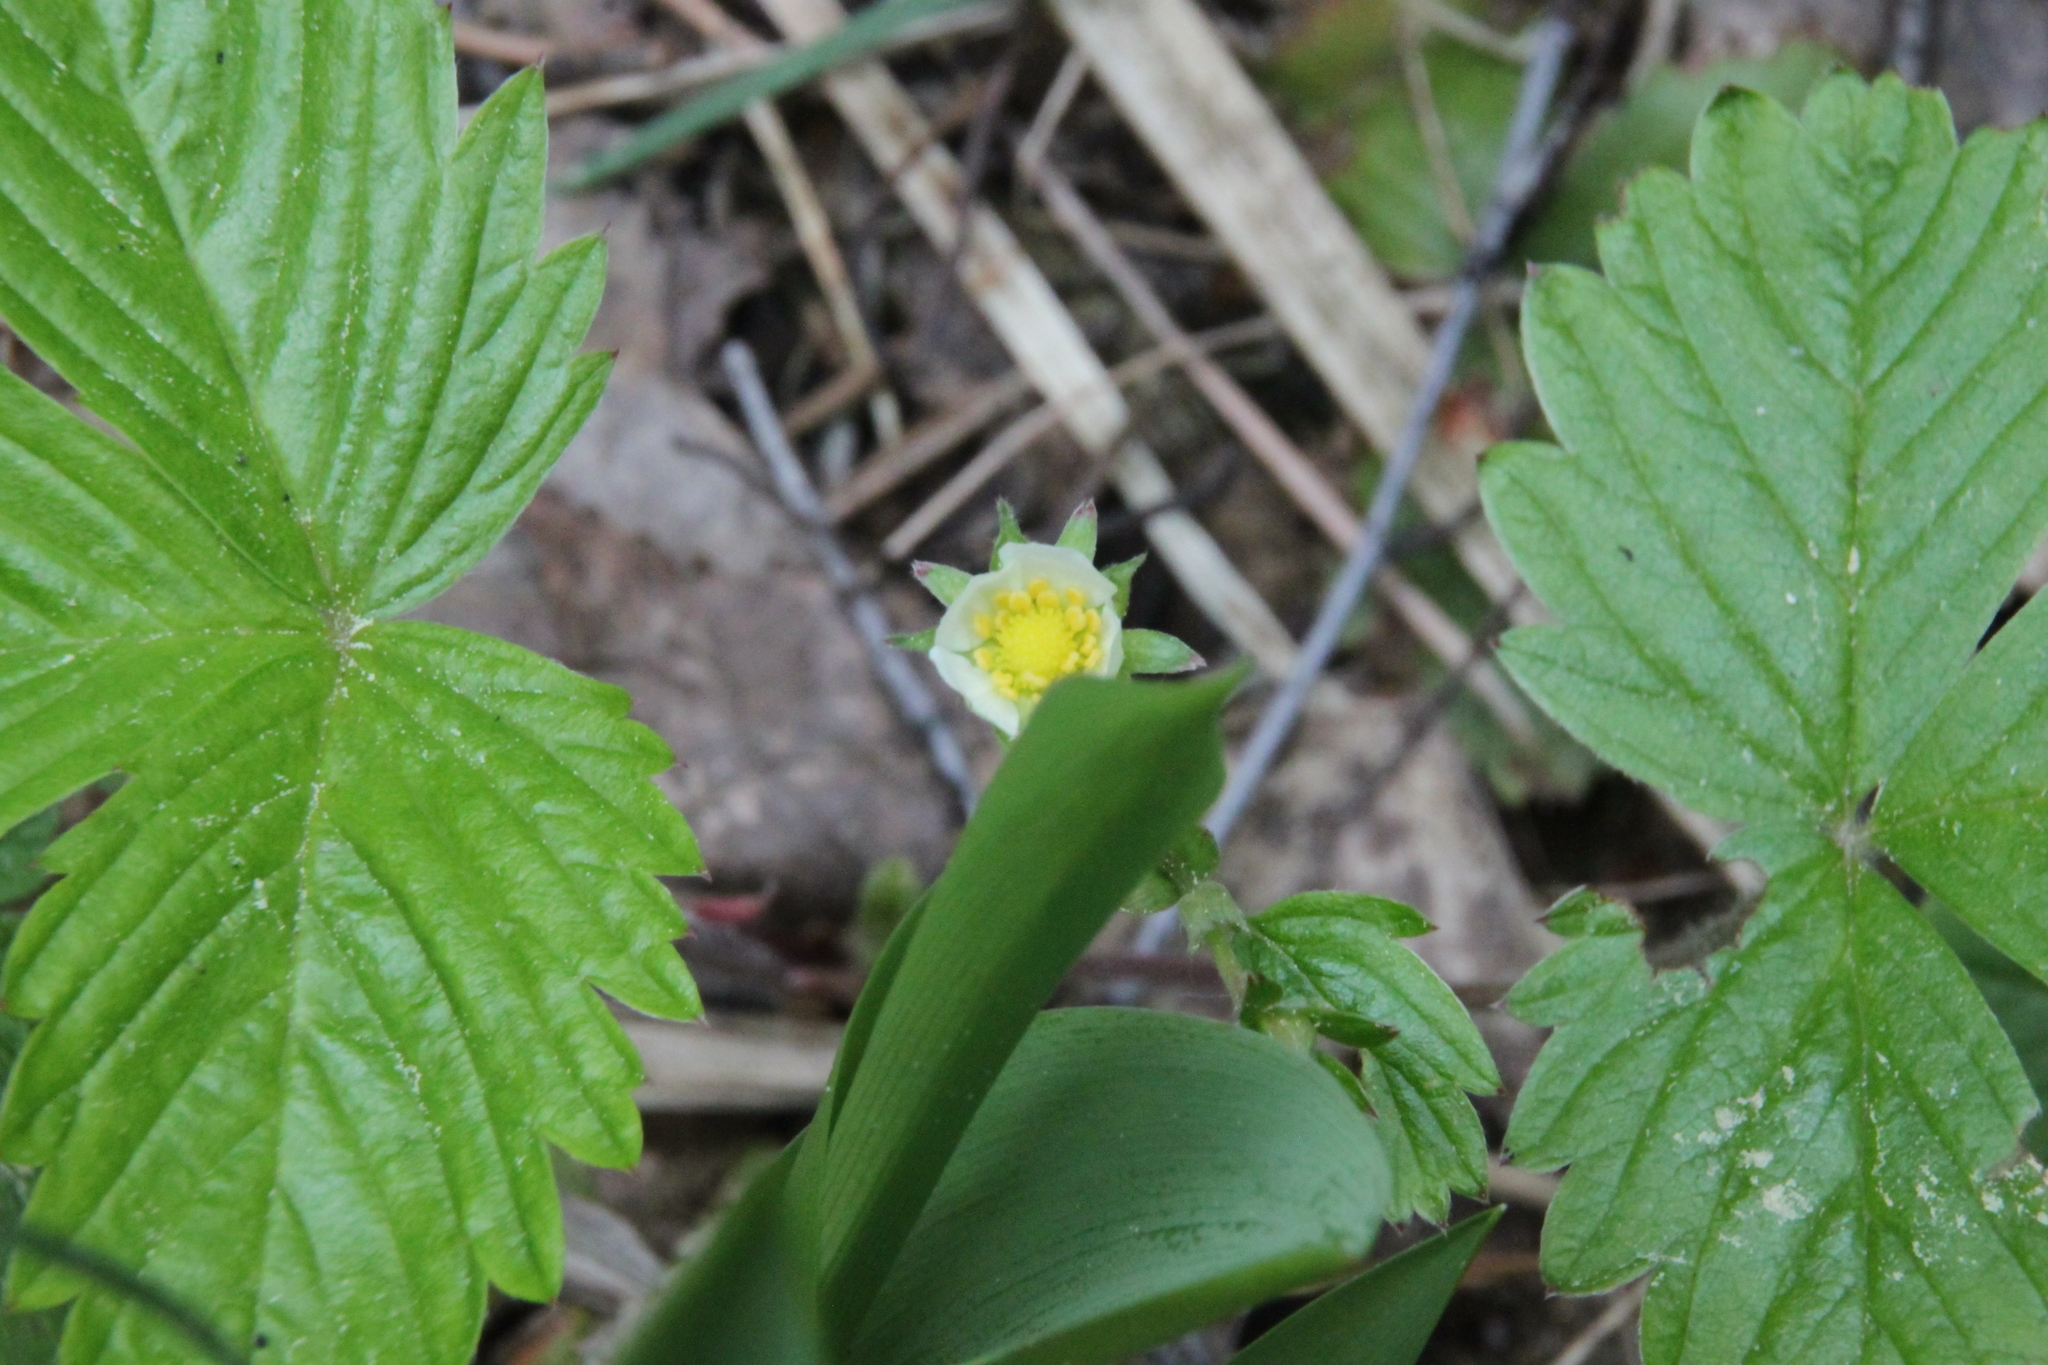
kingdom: Plantae
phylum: Tracheophyta
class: Magnoliopsida
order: Rosales
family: Rosaceae
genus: Fragaria
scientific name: Fragaria vesca
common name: Wild strawberry
